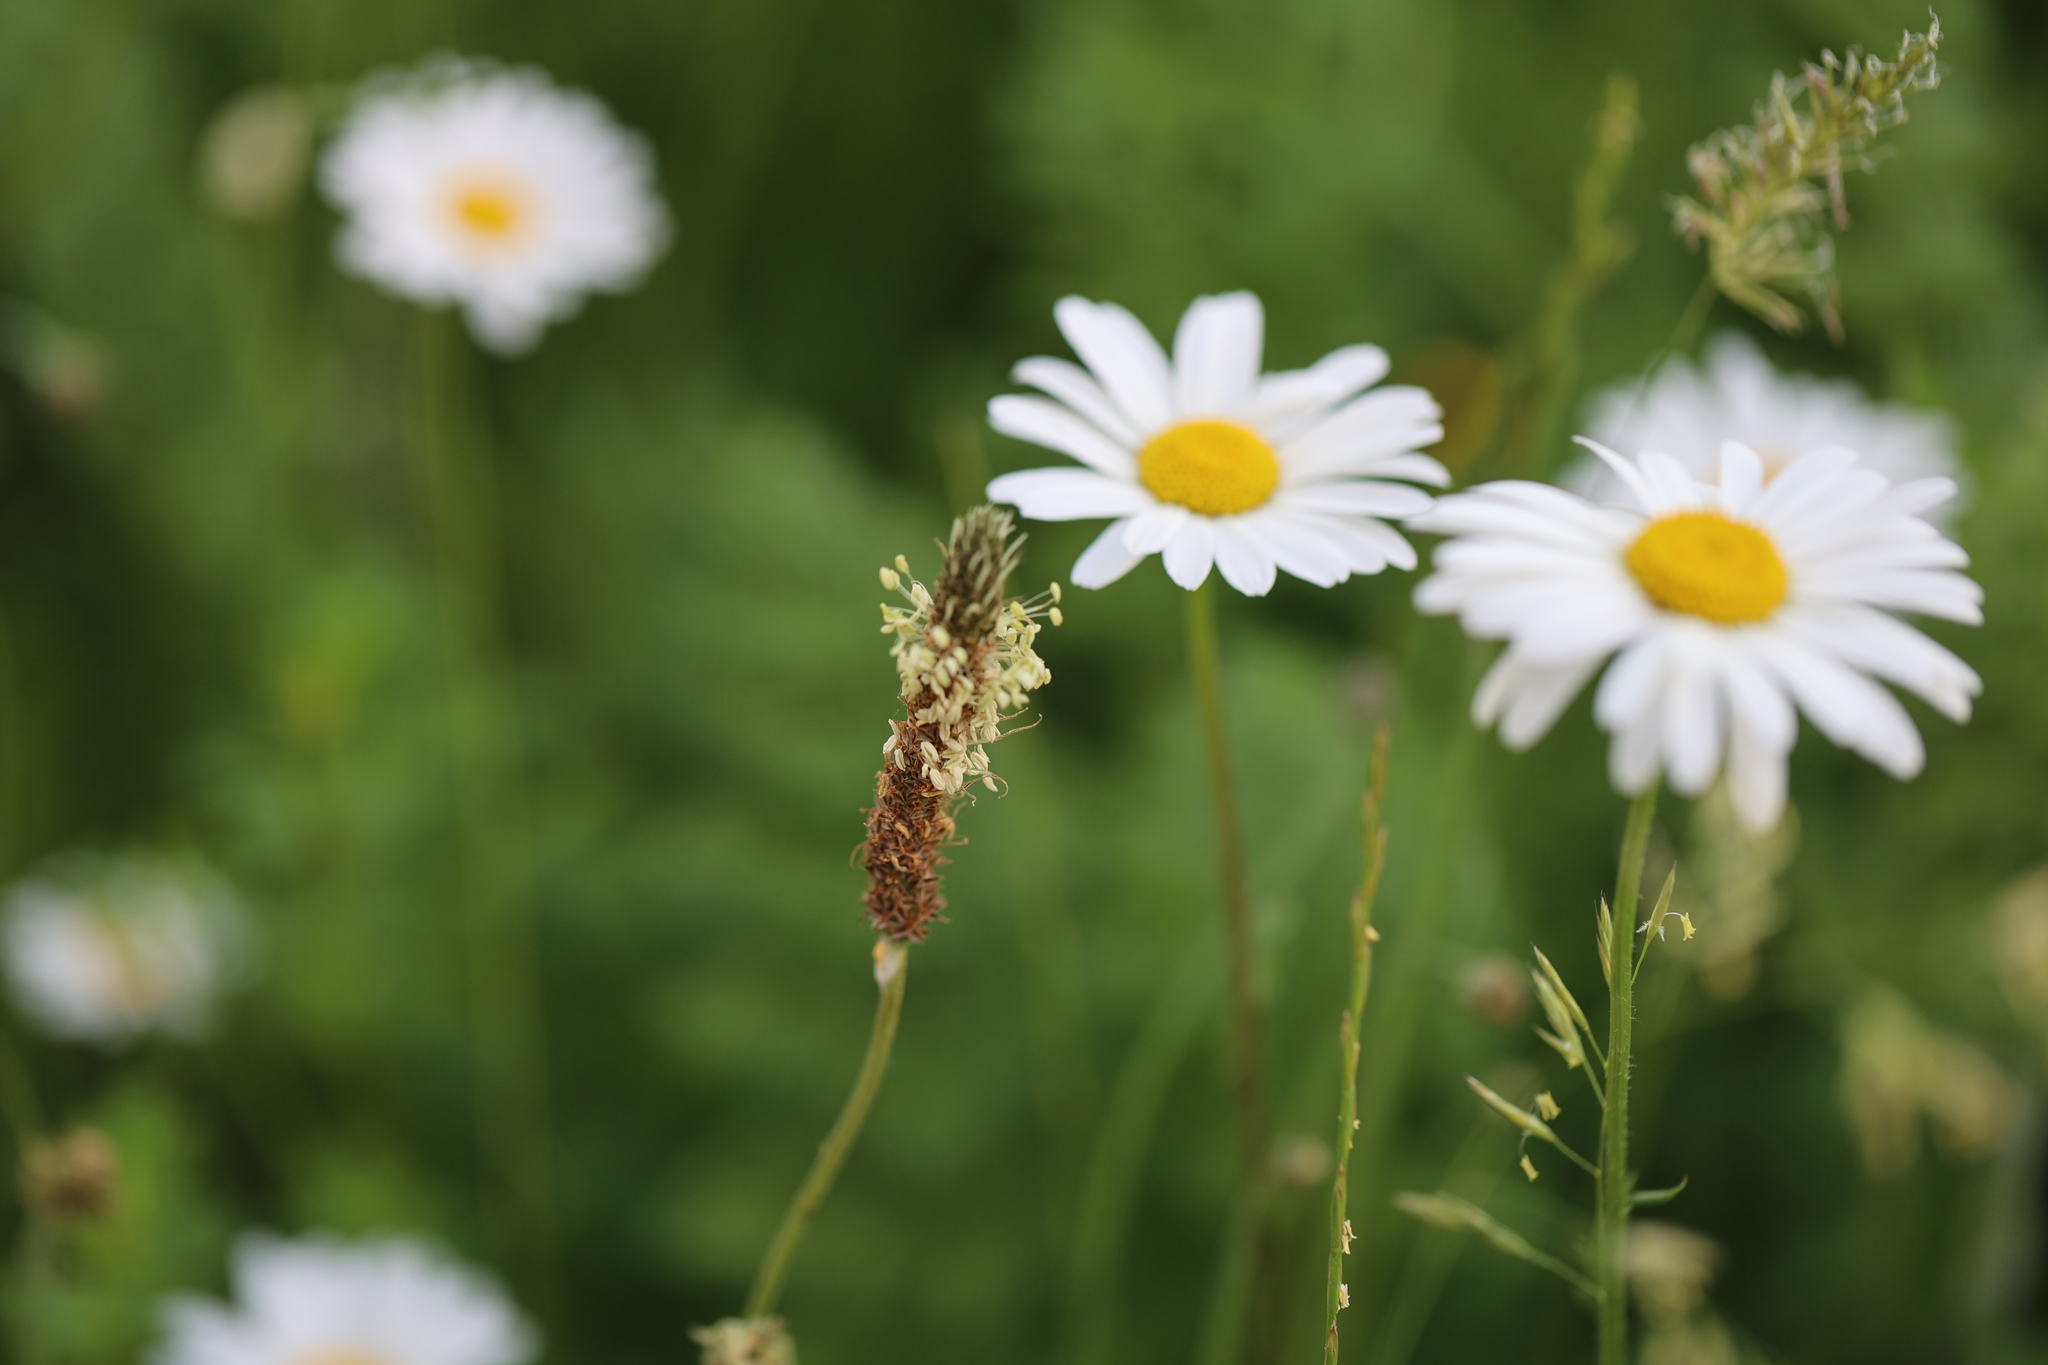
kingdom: Plantae
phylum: Tracheophyta
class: Magnoliopsida
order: Lamiales
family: Plantaginaceae
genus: Plantago
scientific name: Plantago lanceolata
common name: Ribwort plantain
